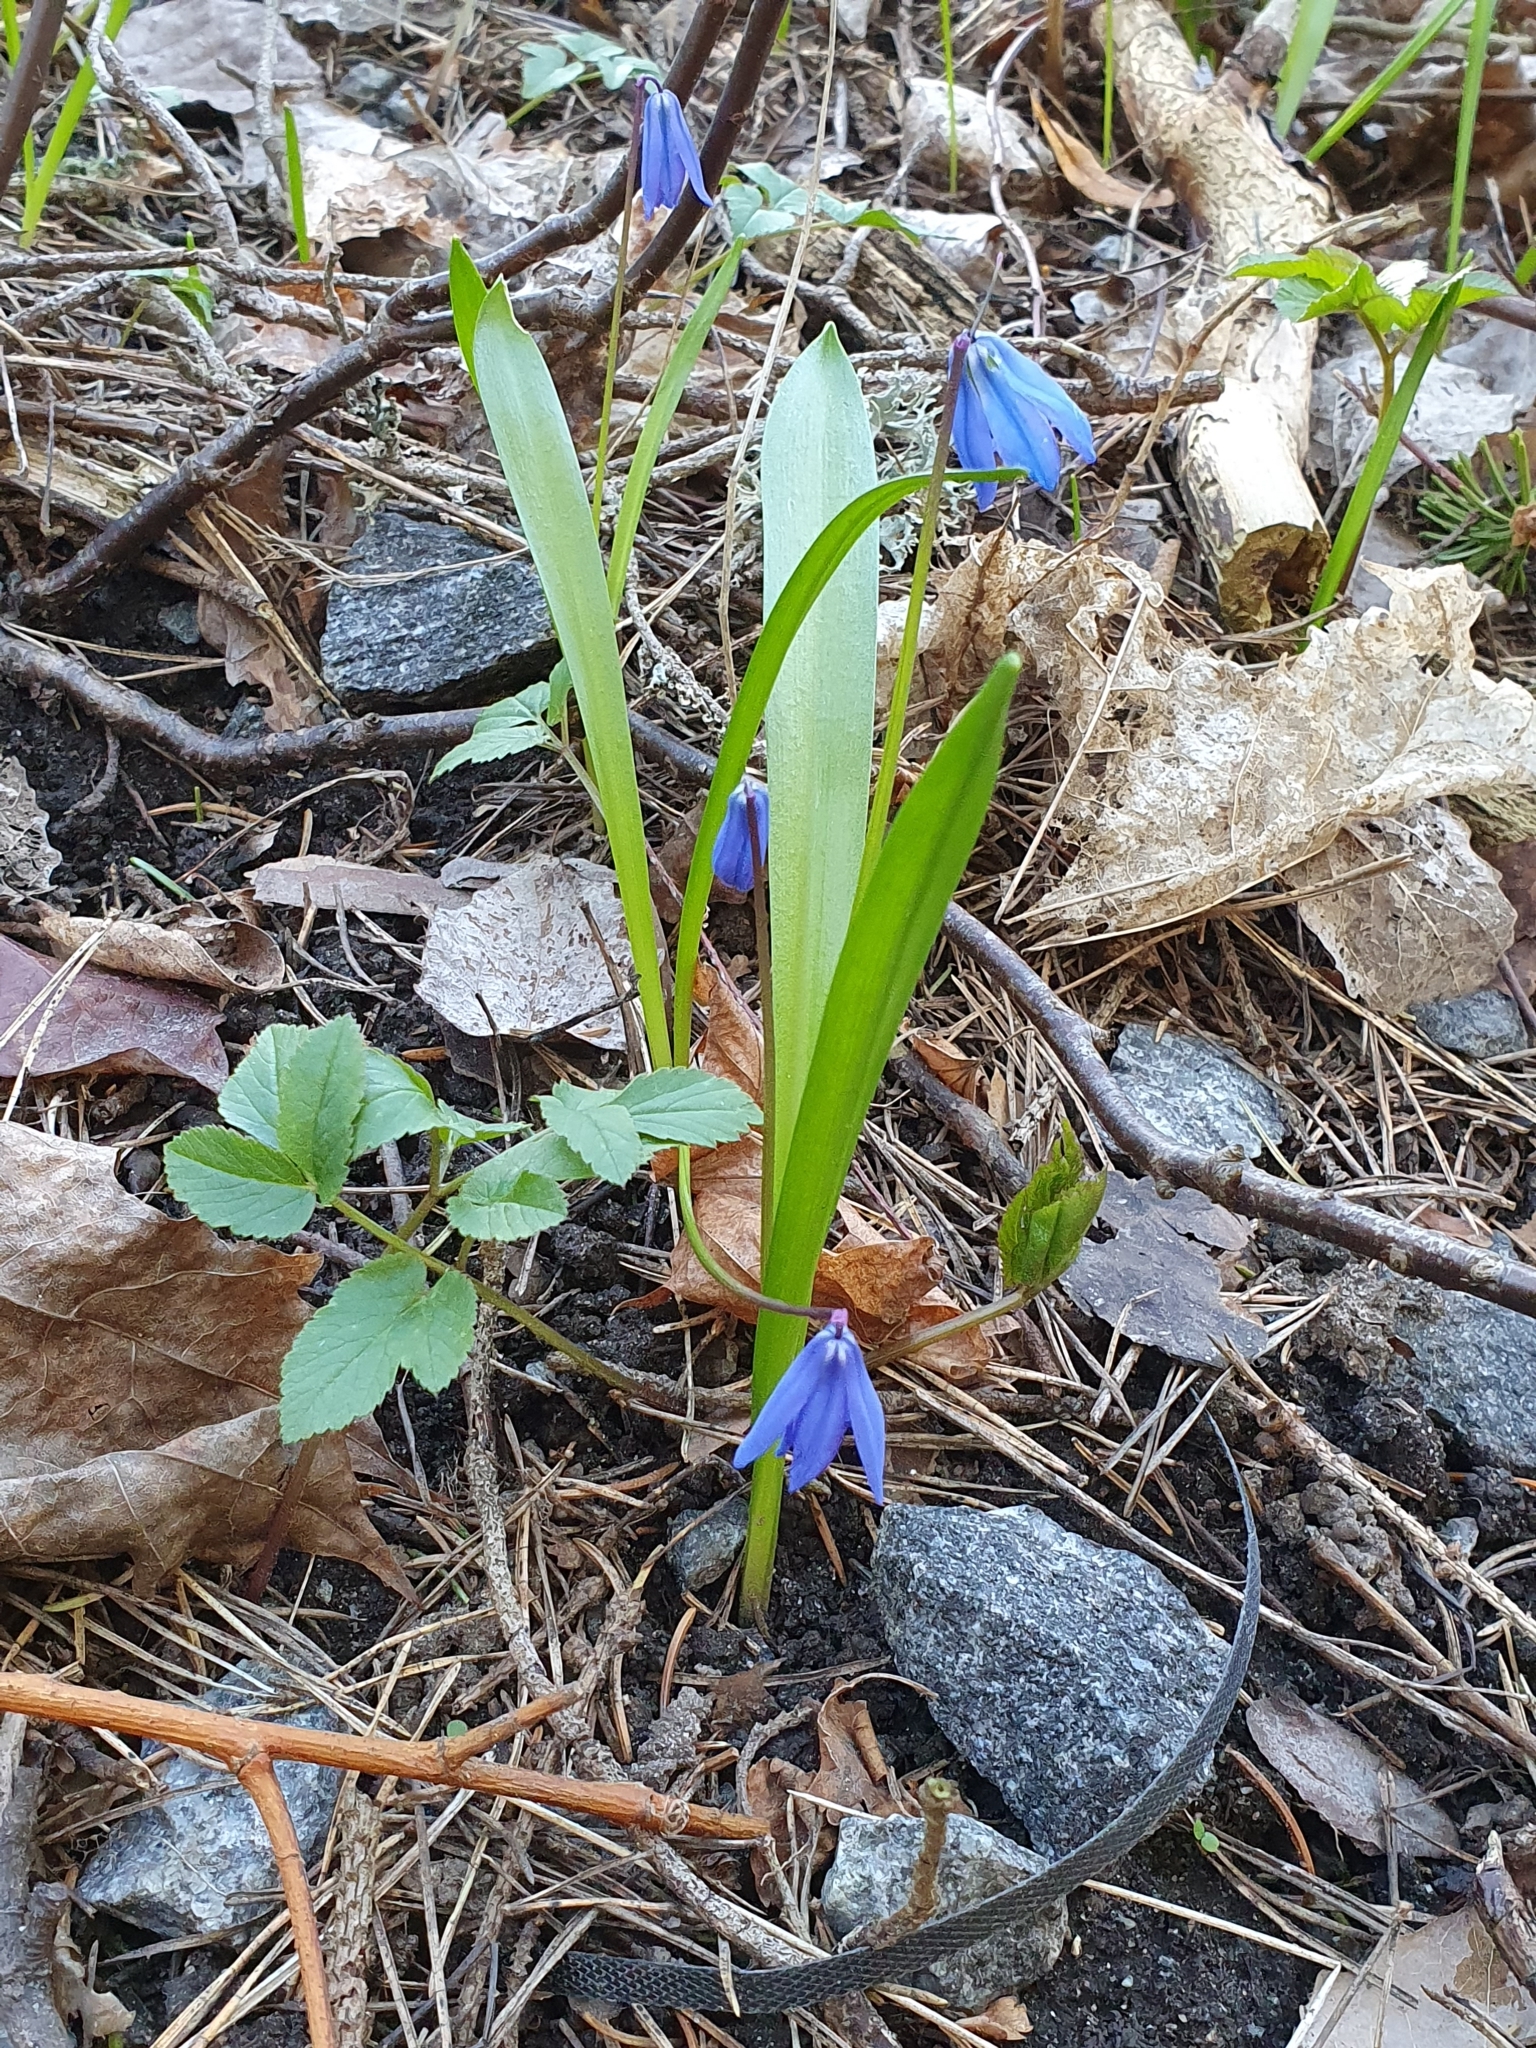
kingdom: Plantae
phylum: Tracheophyta
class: Liliopsida
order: Asparagales
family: Asparagaceae
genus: Scilla
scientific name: Scilla siberica
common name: Siberian squill
